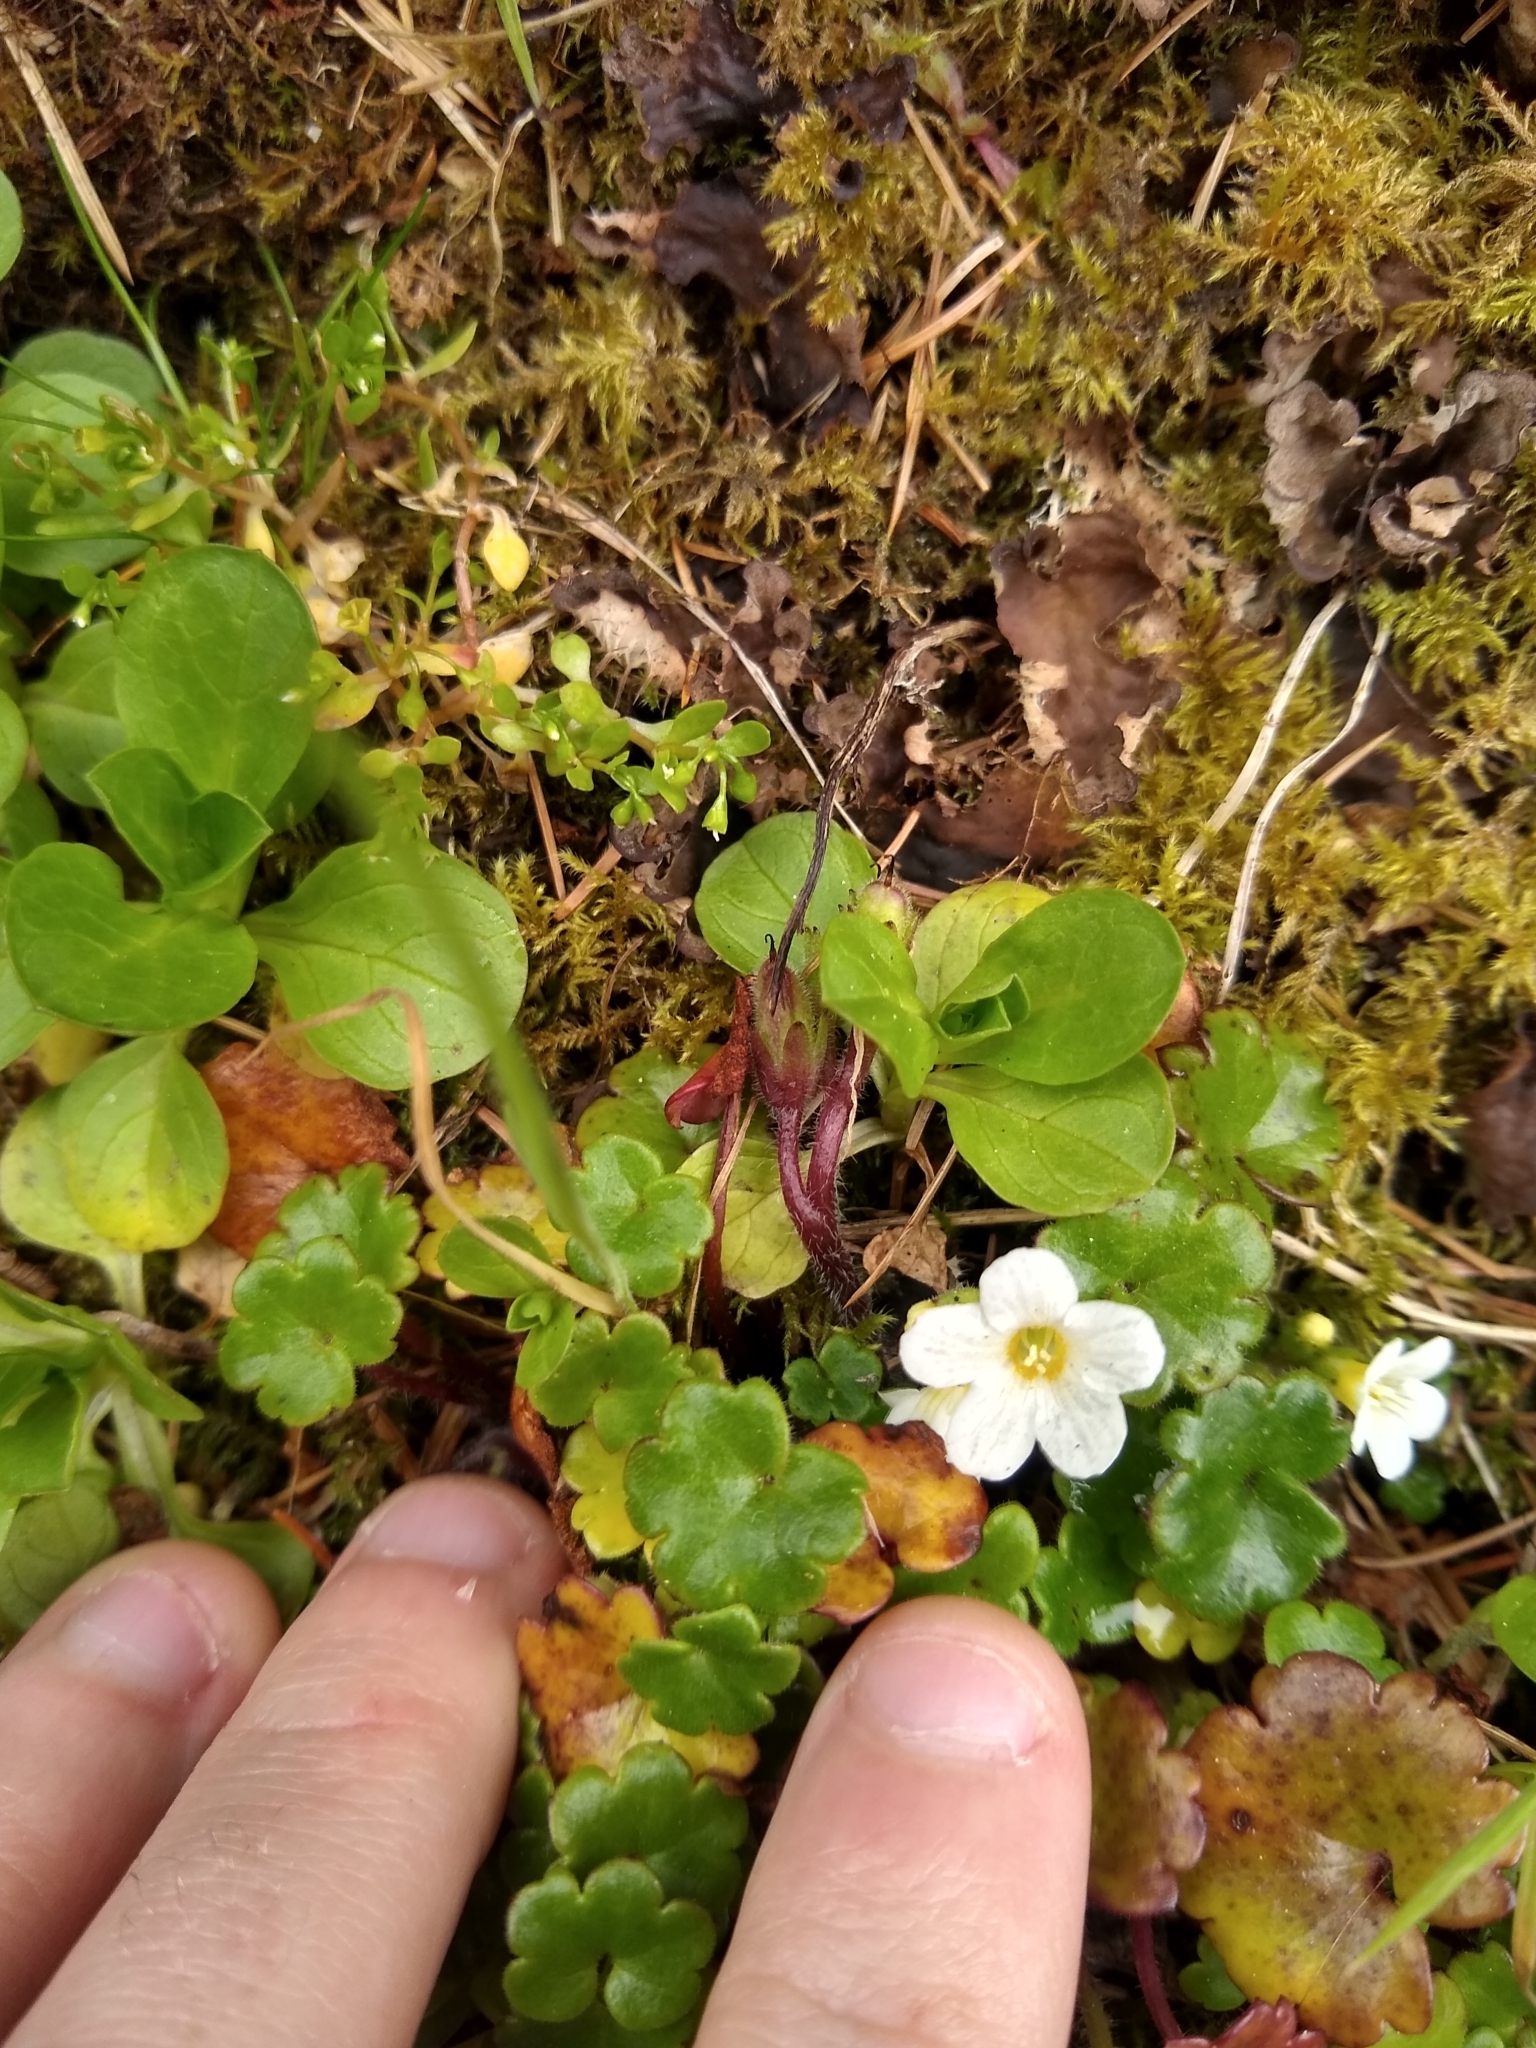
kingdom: Plantae
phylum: Tracheophyta
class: Magnoliopsida
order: Boraginales
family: Hydrophyllaceae
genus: Romanzoffia
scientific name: Romanzoffia tracyi
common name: Tracy's mistmaid
